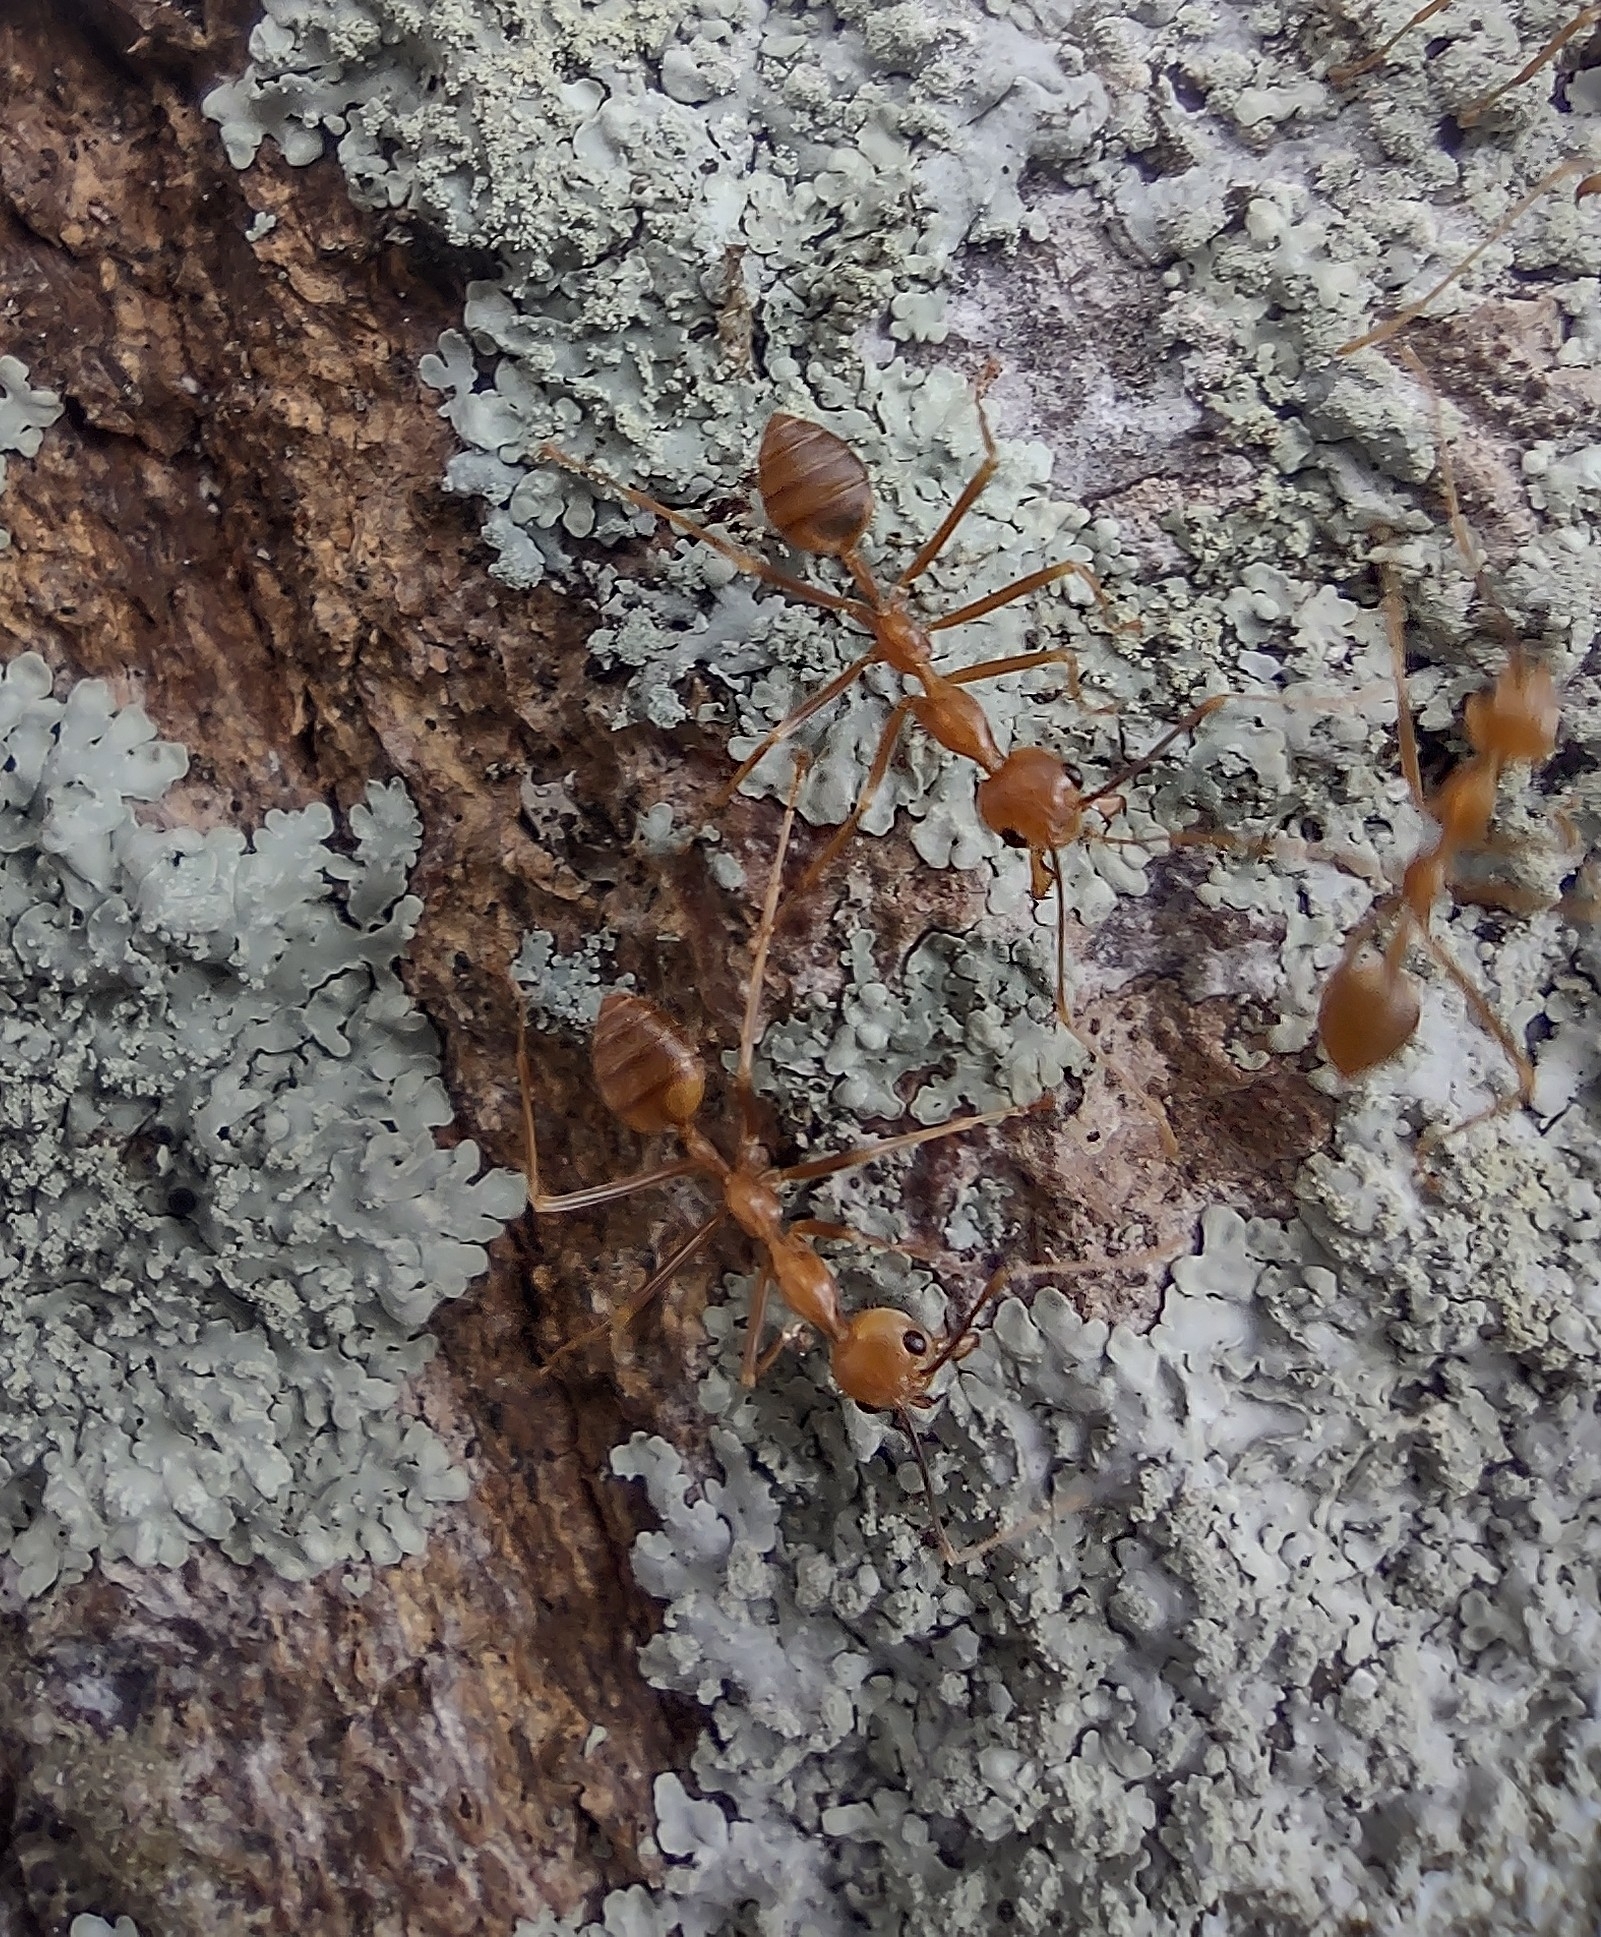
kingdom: Animalia
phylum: Arthropoda
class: Insecta
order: Hymenoptera
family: Formicidae
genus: Oecophylla
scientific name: Oecophylla smaragdina
